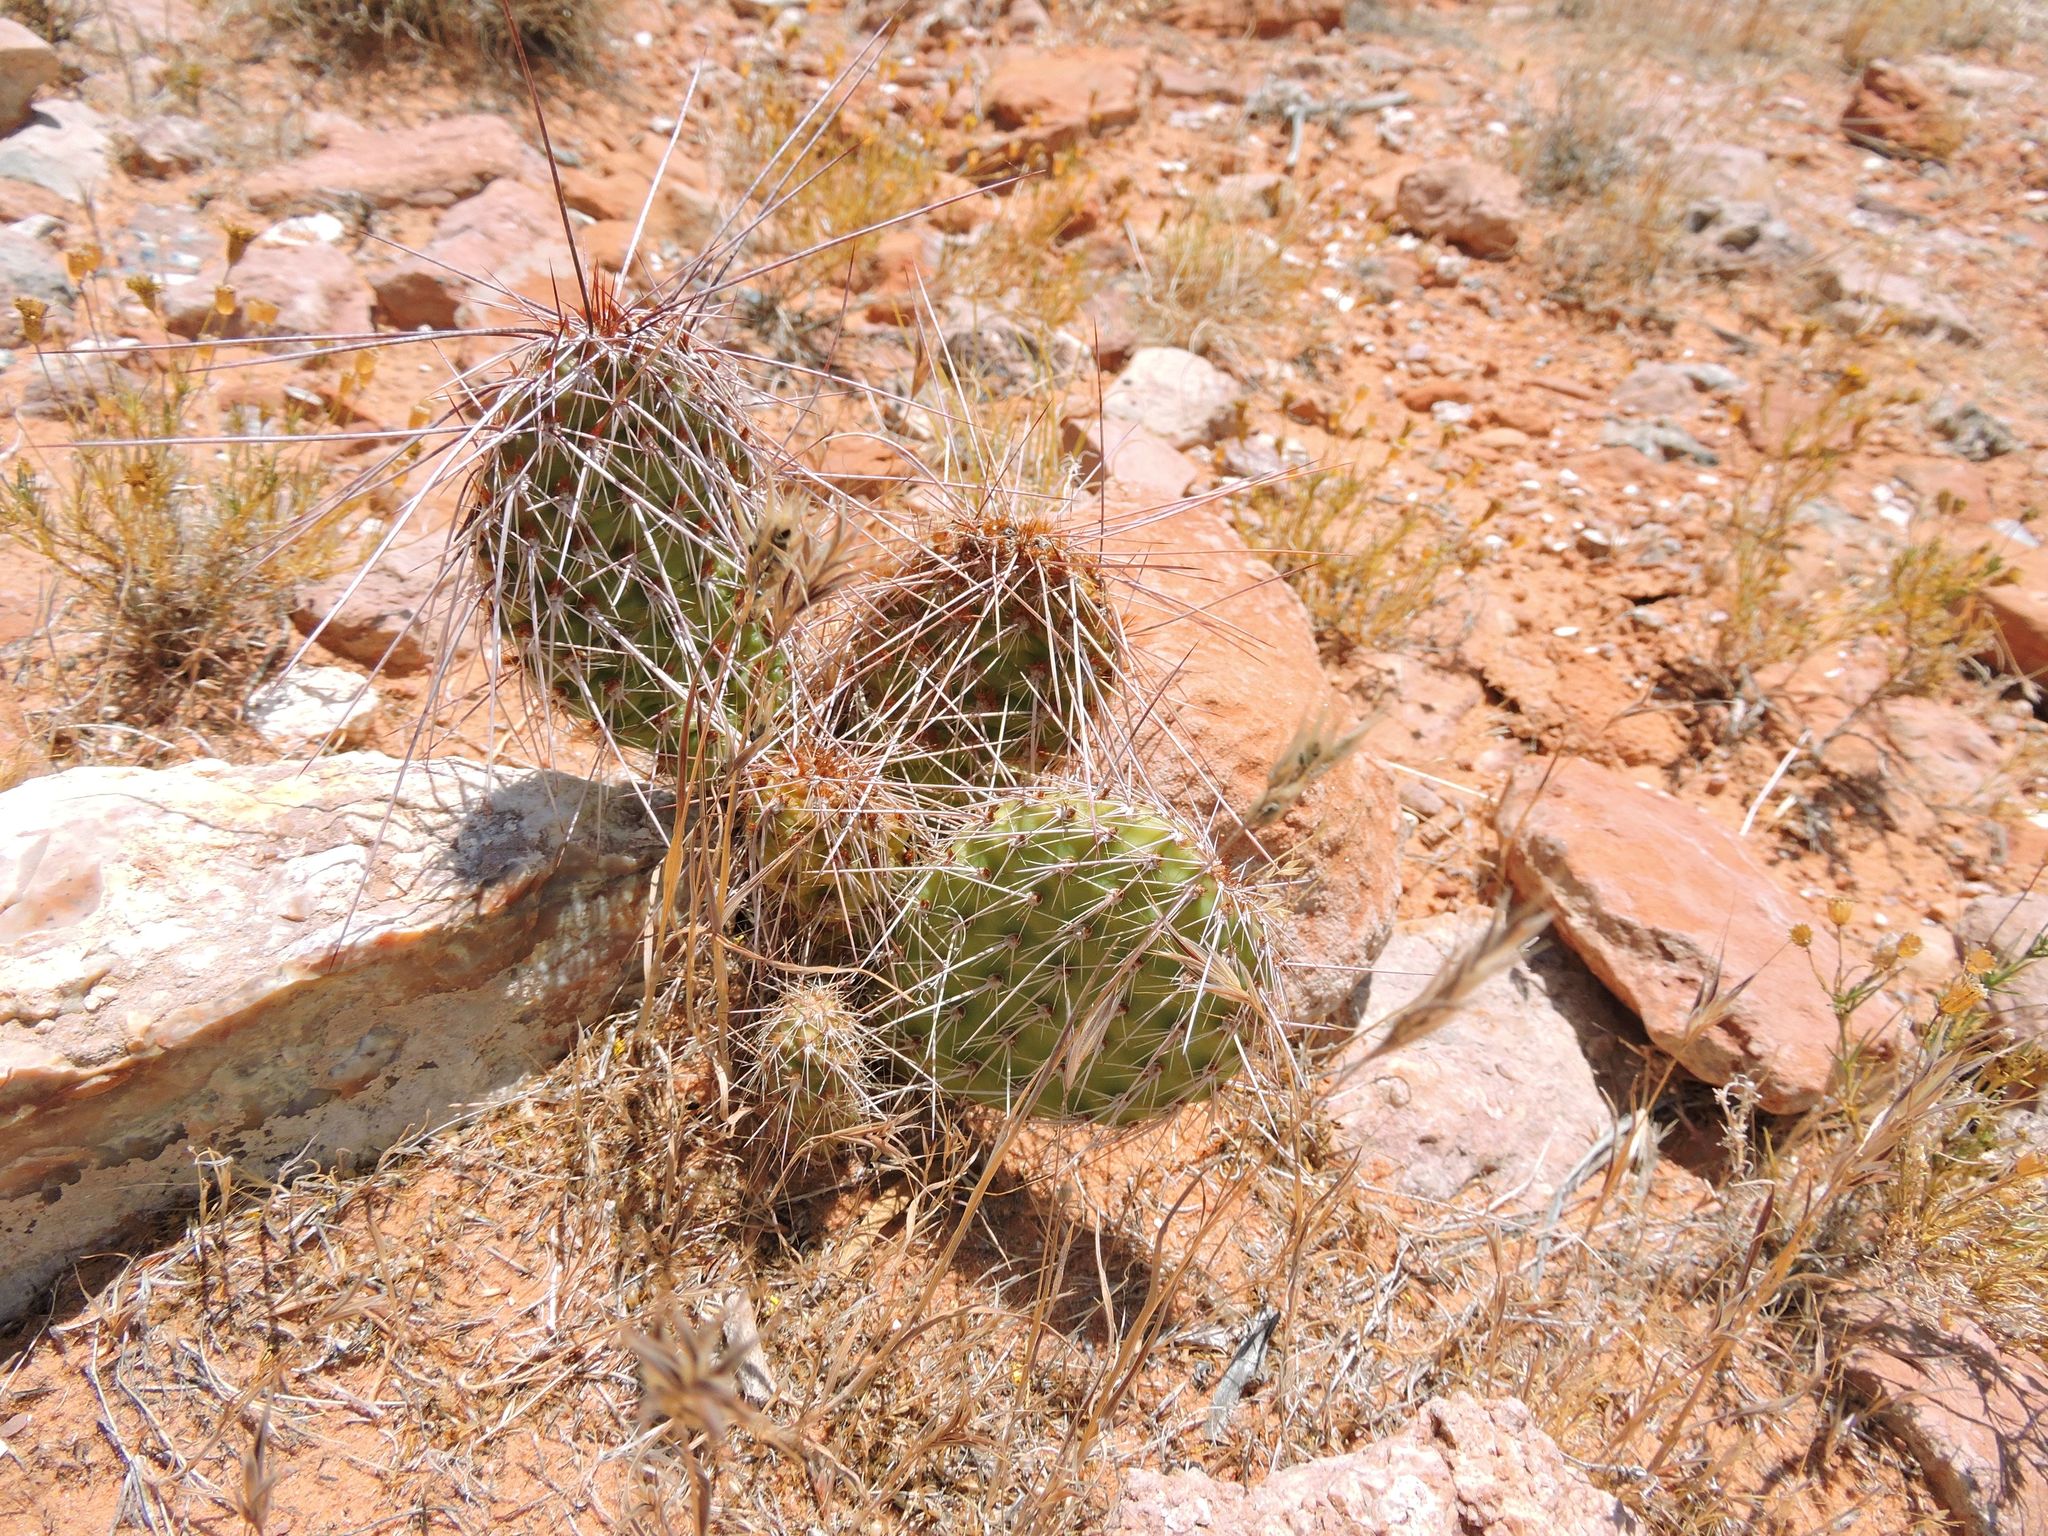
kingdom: Plantae
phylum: Tracheophyta
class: Magnoliopsida
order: Caryophyllales
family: Cactaceae
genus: Opuntia
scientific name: Opuntia polyacantha
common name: Plains prickly-pear
